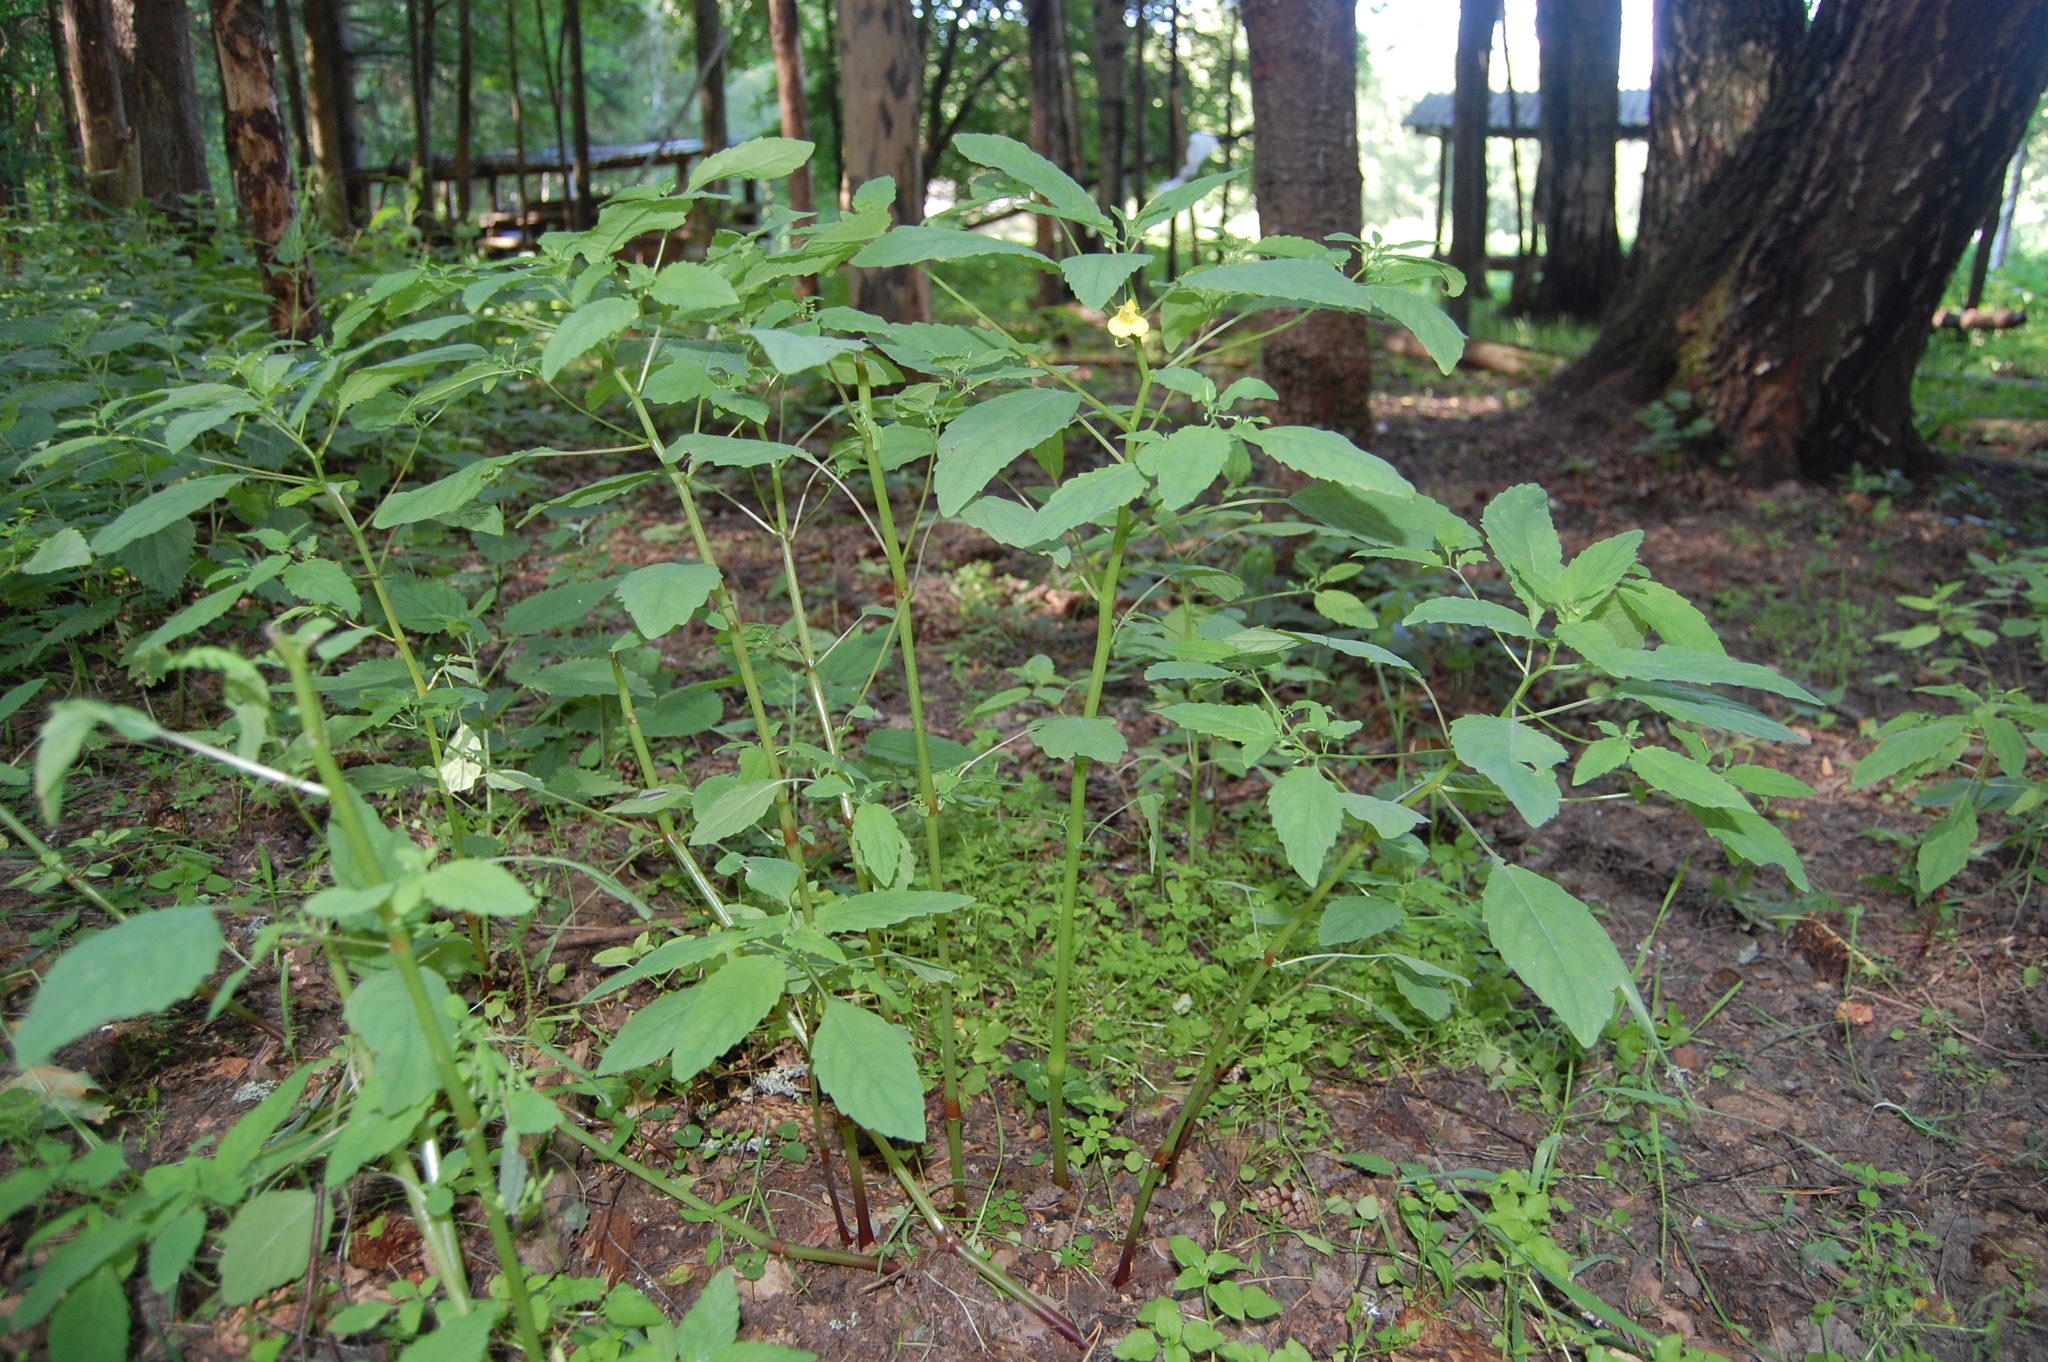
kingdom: Plantae
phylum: Tracheophyta
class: Magnoliopsida
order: Ericales
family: Balsaminaceae
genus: Impatiens
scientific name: Impatiens noli-tangere
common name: Touch-me-not balsam
